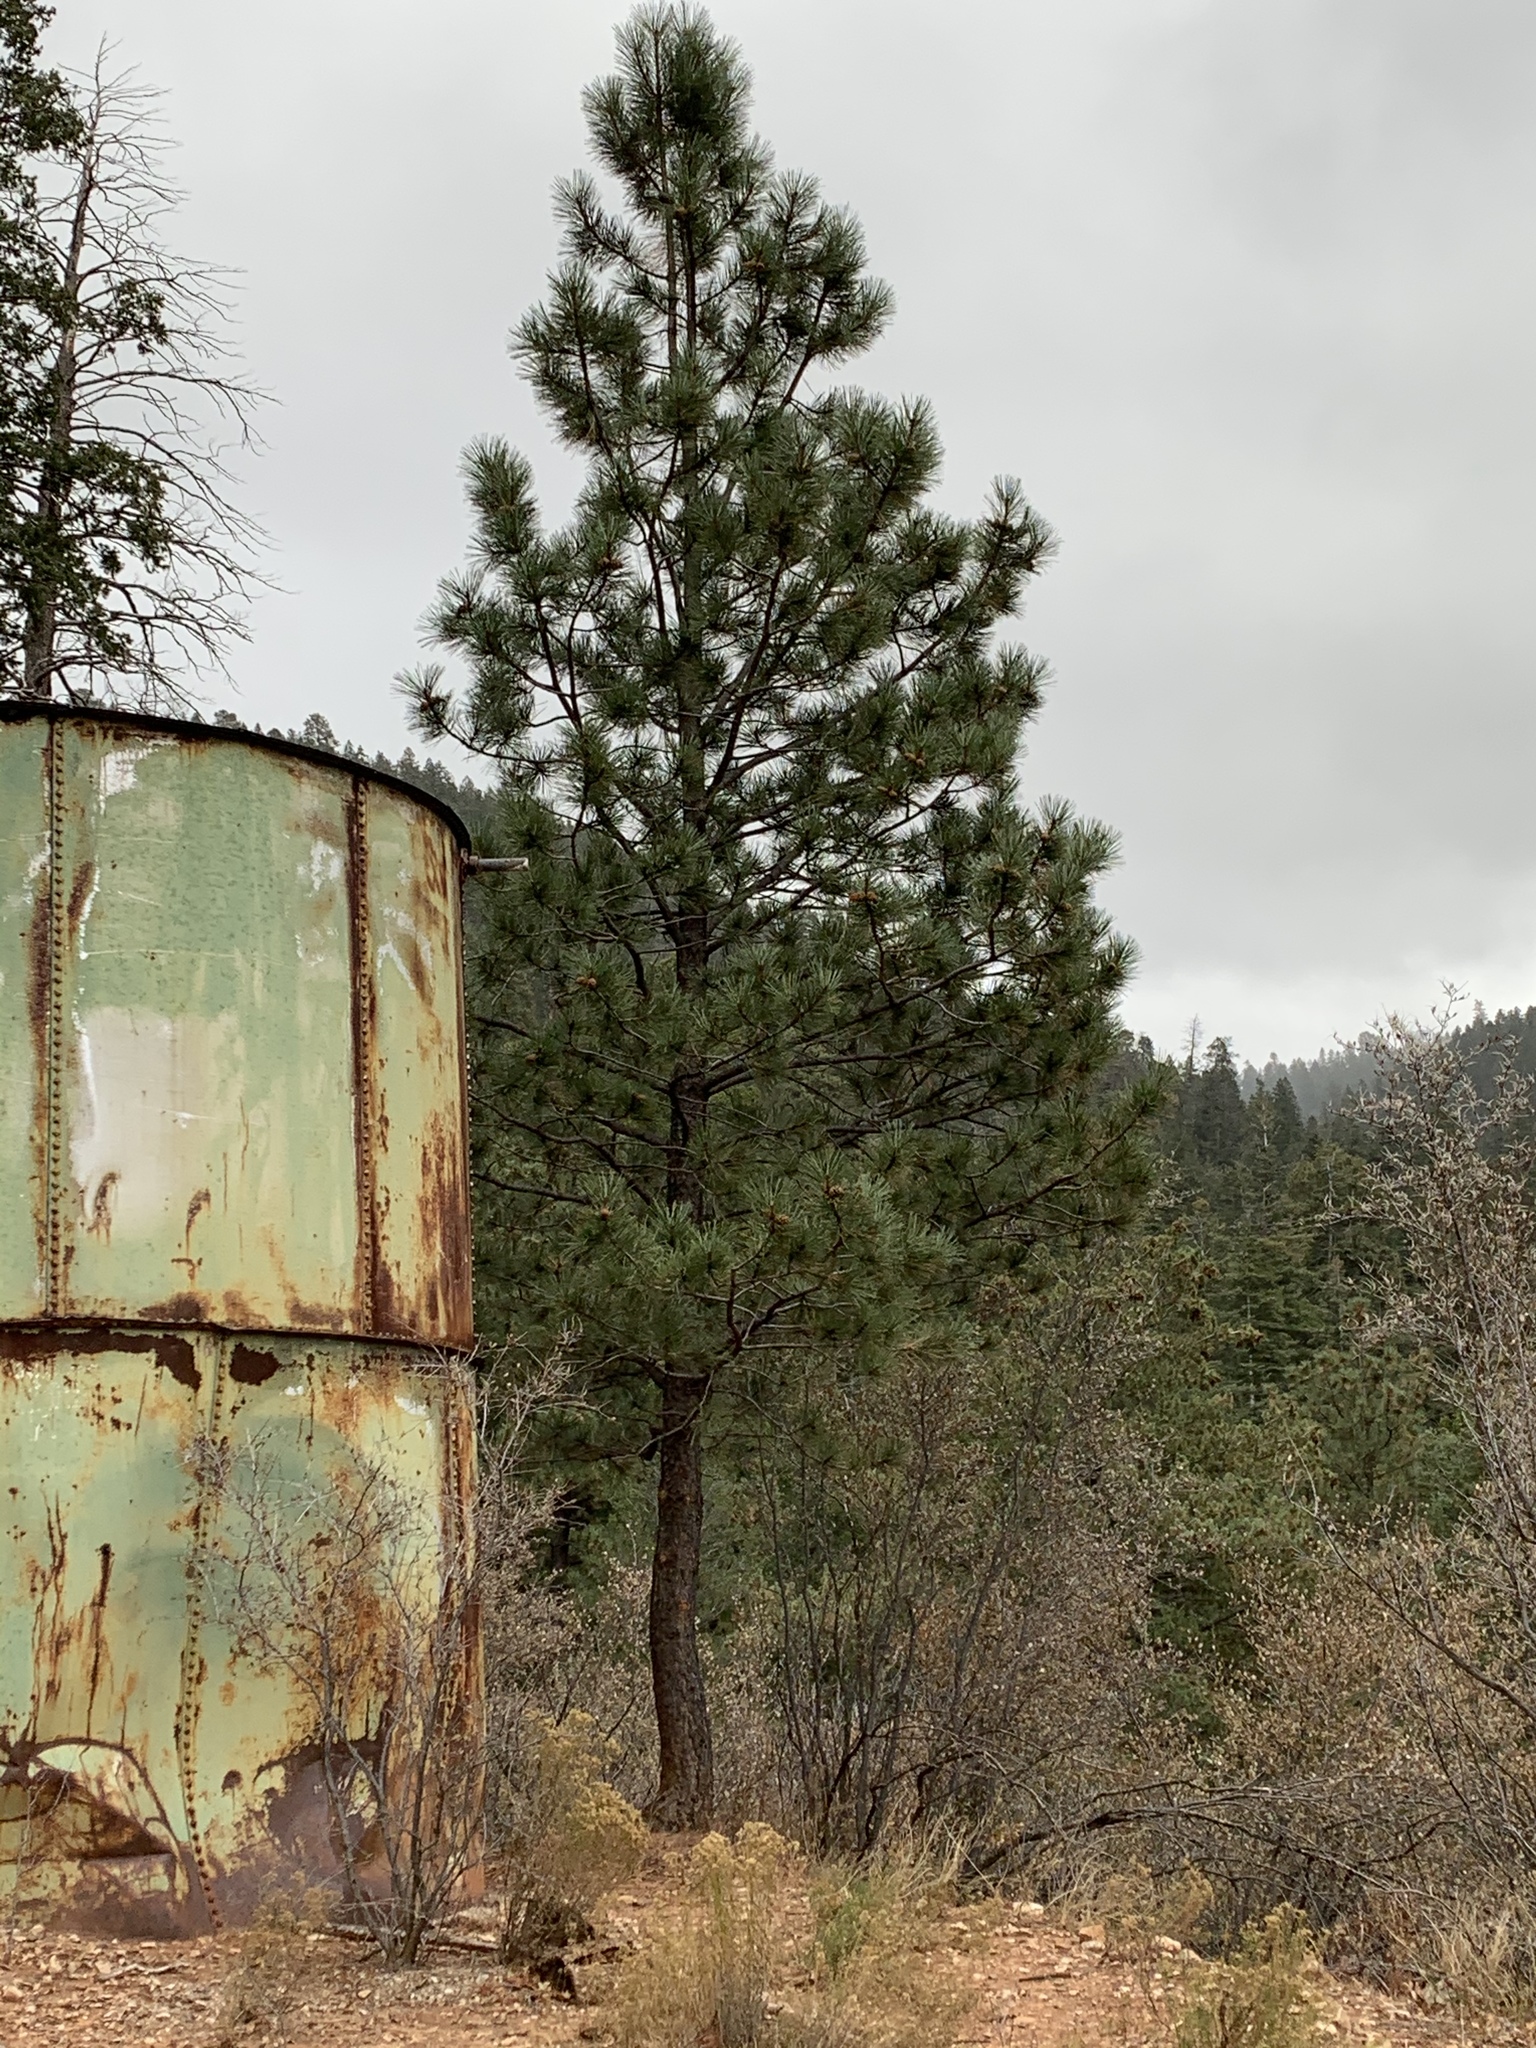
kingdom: Plantae
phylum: Tracheophyta
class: Pinopsida
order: Pinales
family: Pinaceae
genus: Pinus
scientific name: Pinus ponderosa
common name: Western yellow-pine
